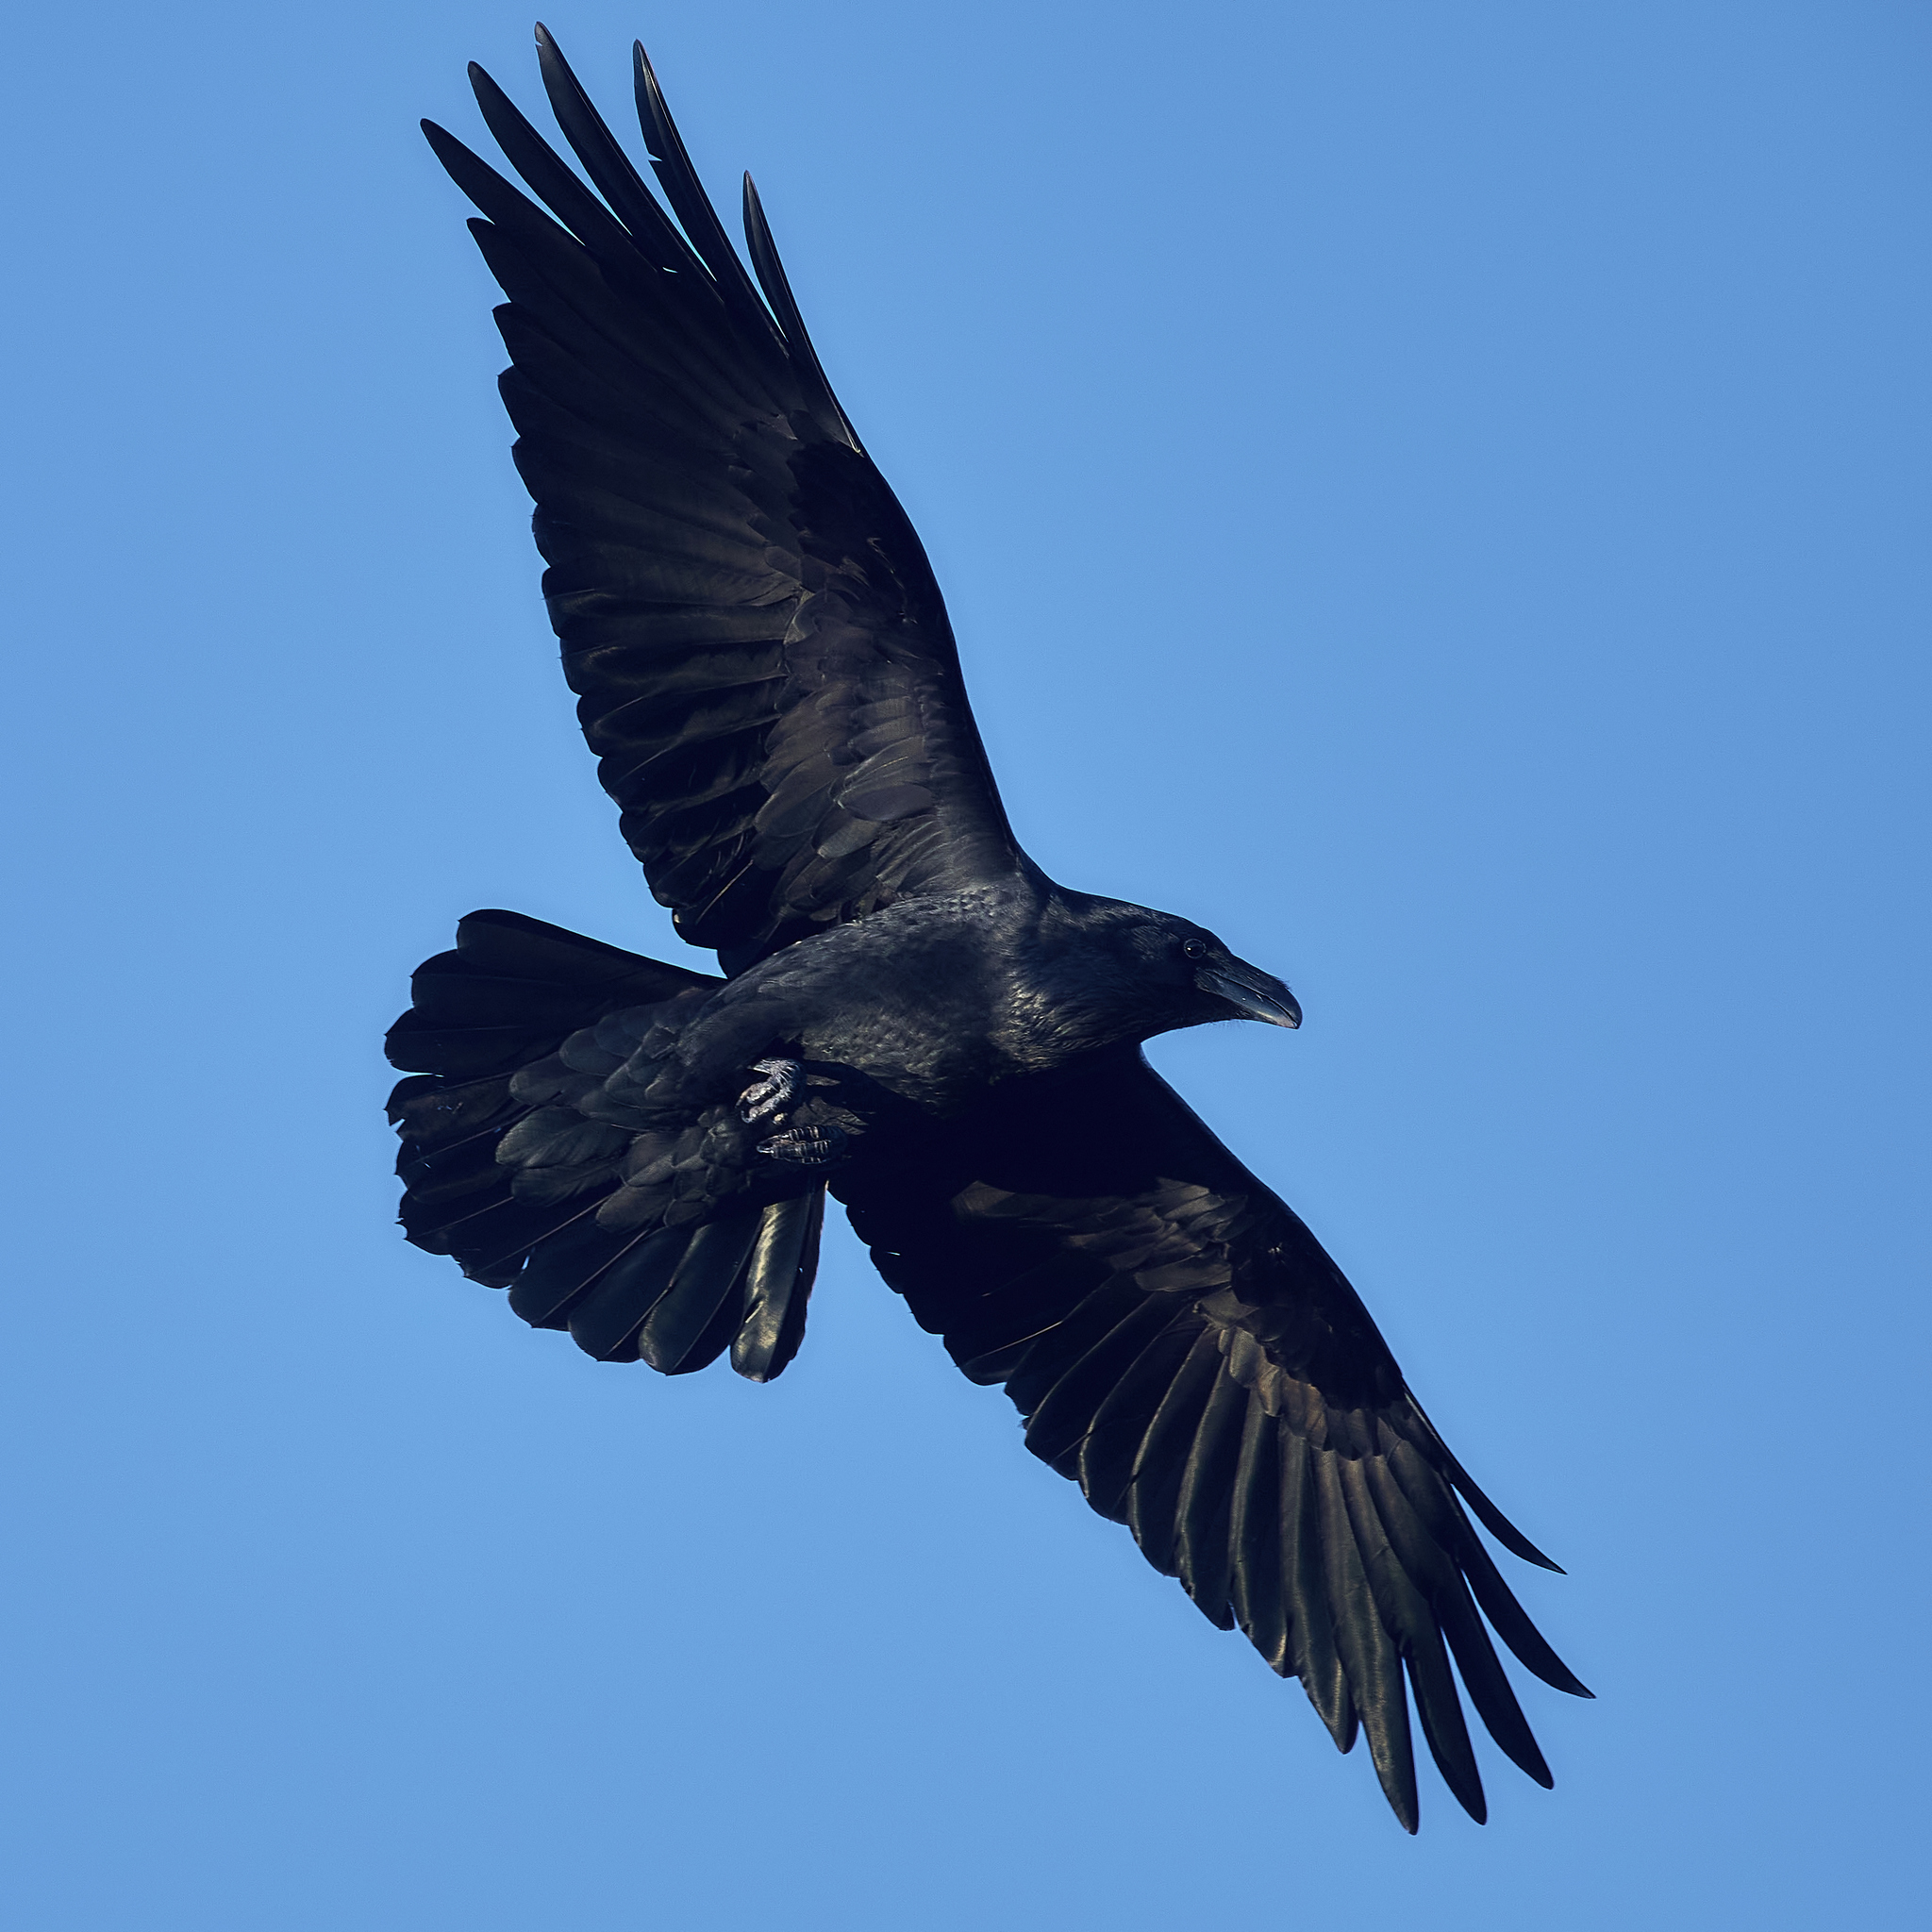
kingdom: Animalia
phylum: Chordata
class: Aves
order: Passeriformes
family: Corvidae
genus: Corvus
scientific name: Corvus corax
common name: Common raven
